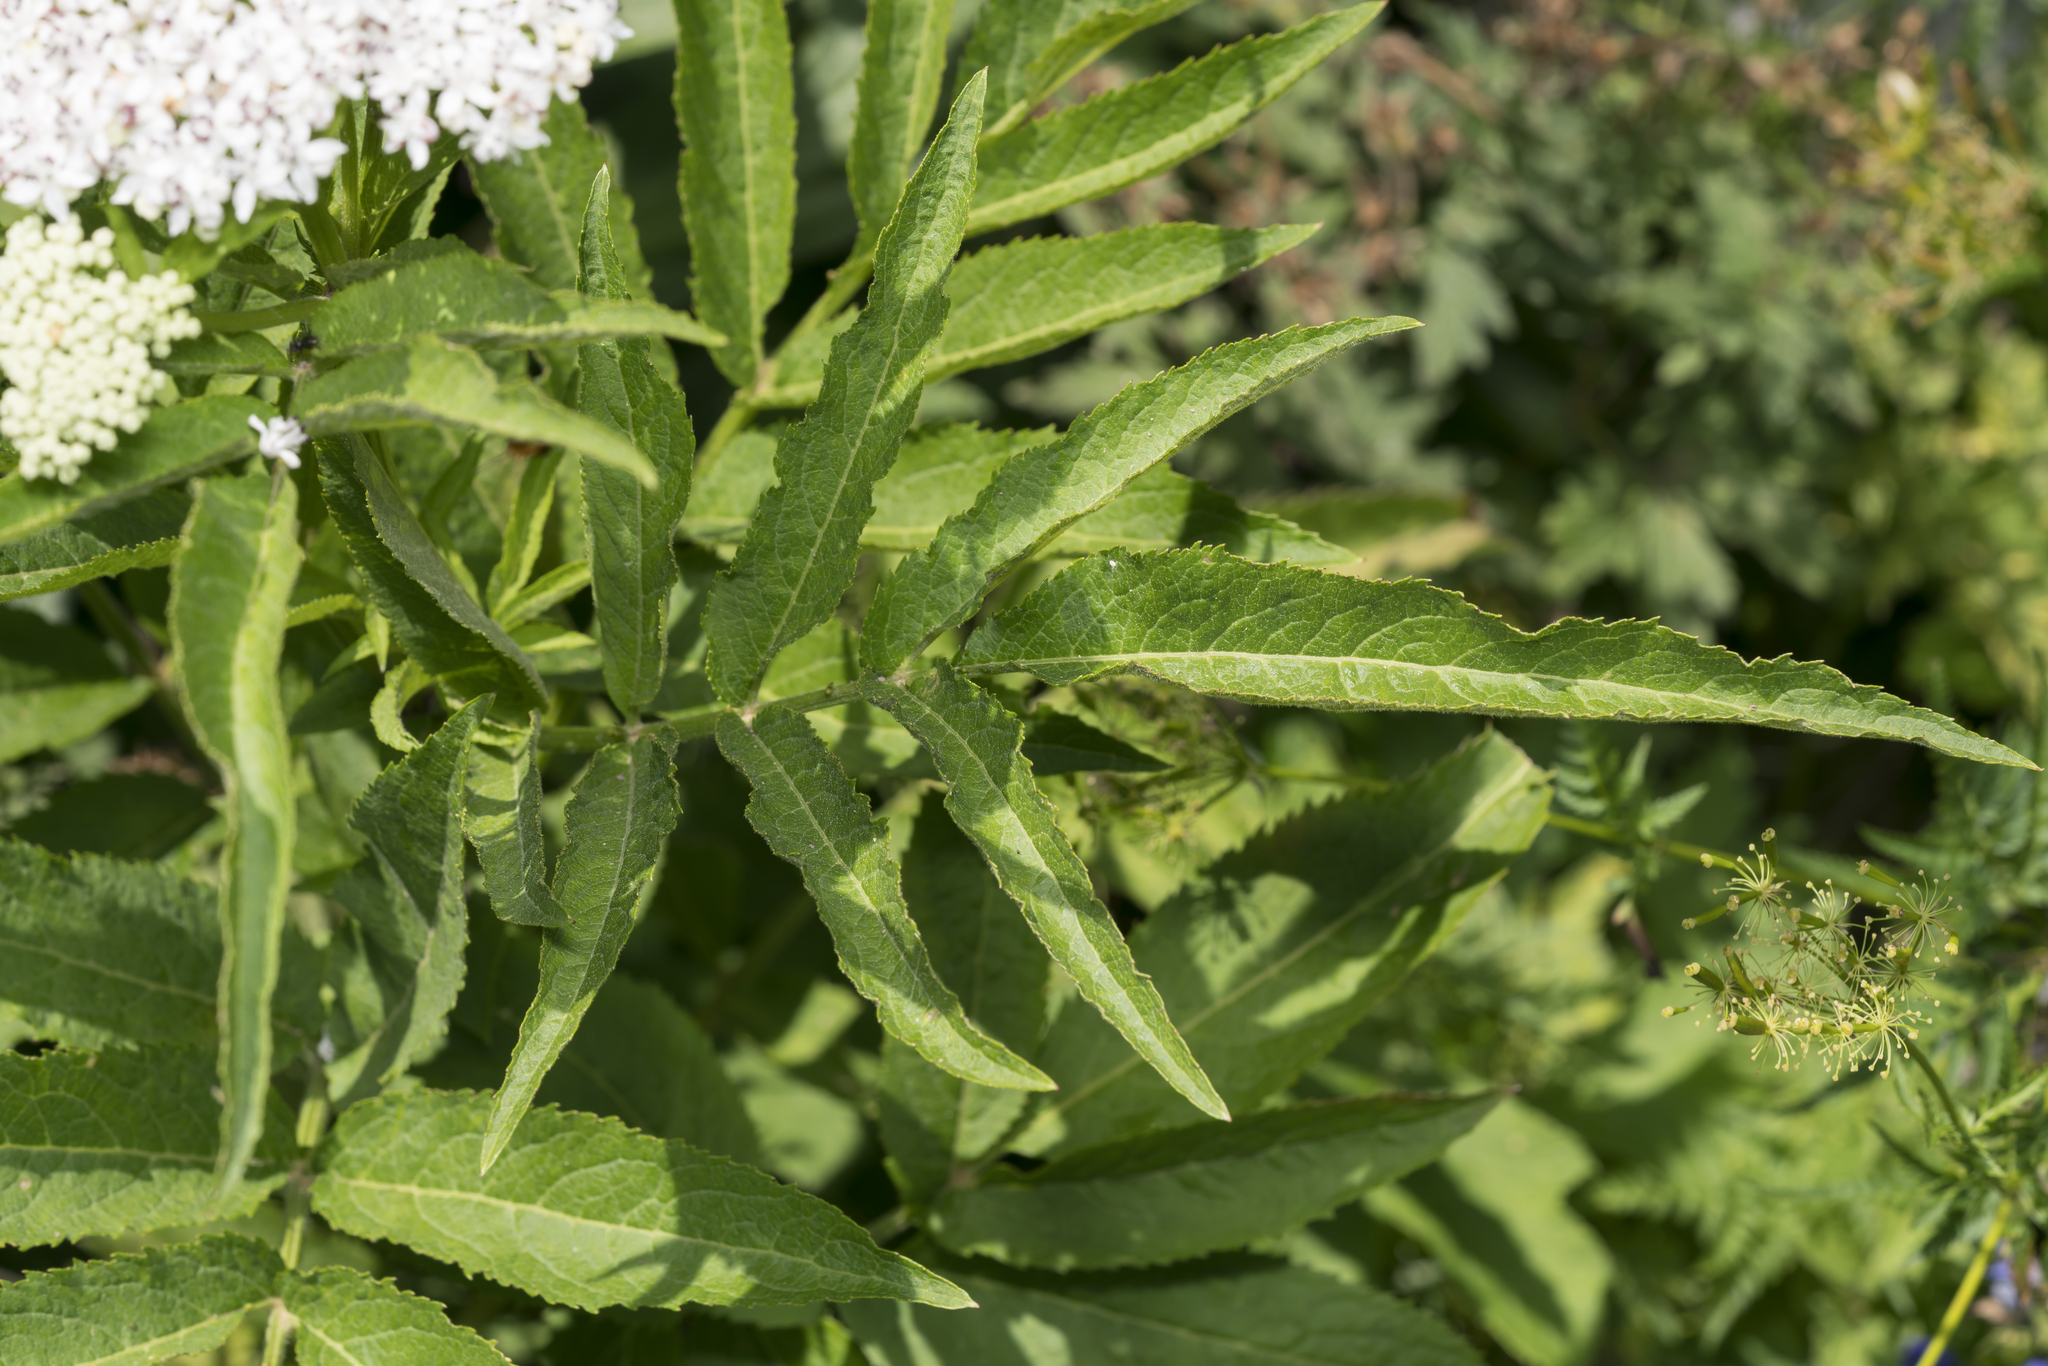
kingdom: Plantae
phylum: Tracheophyta
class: Magnoliopsida
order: Dipsacales
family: Viburnaceae
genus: Sambucus
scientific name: Sambucus ebulus
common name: Dwarf elder
